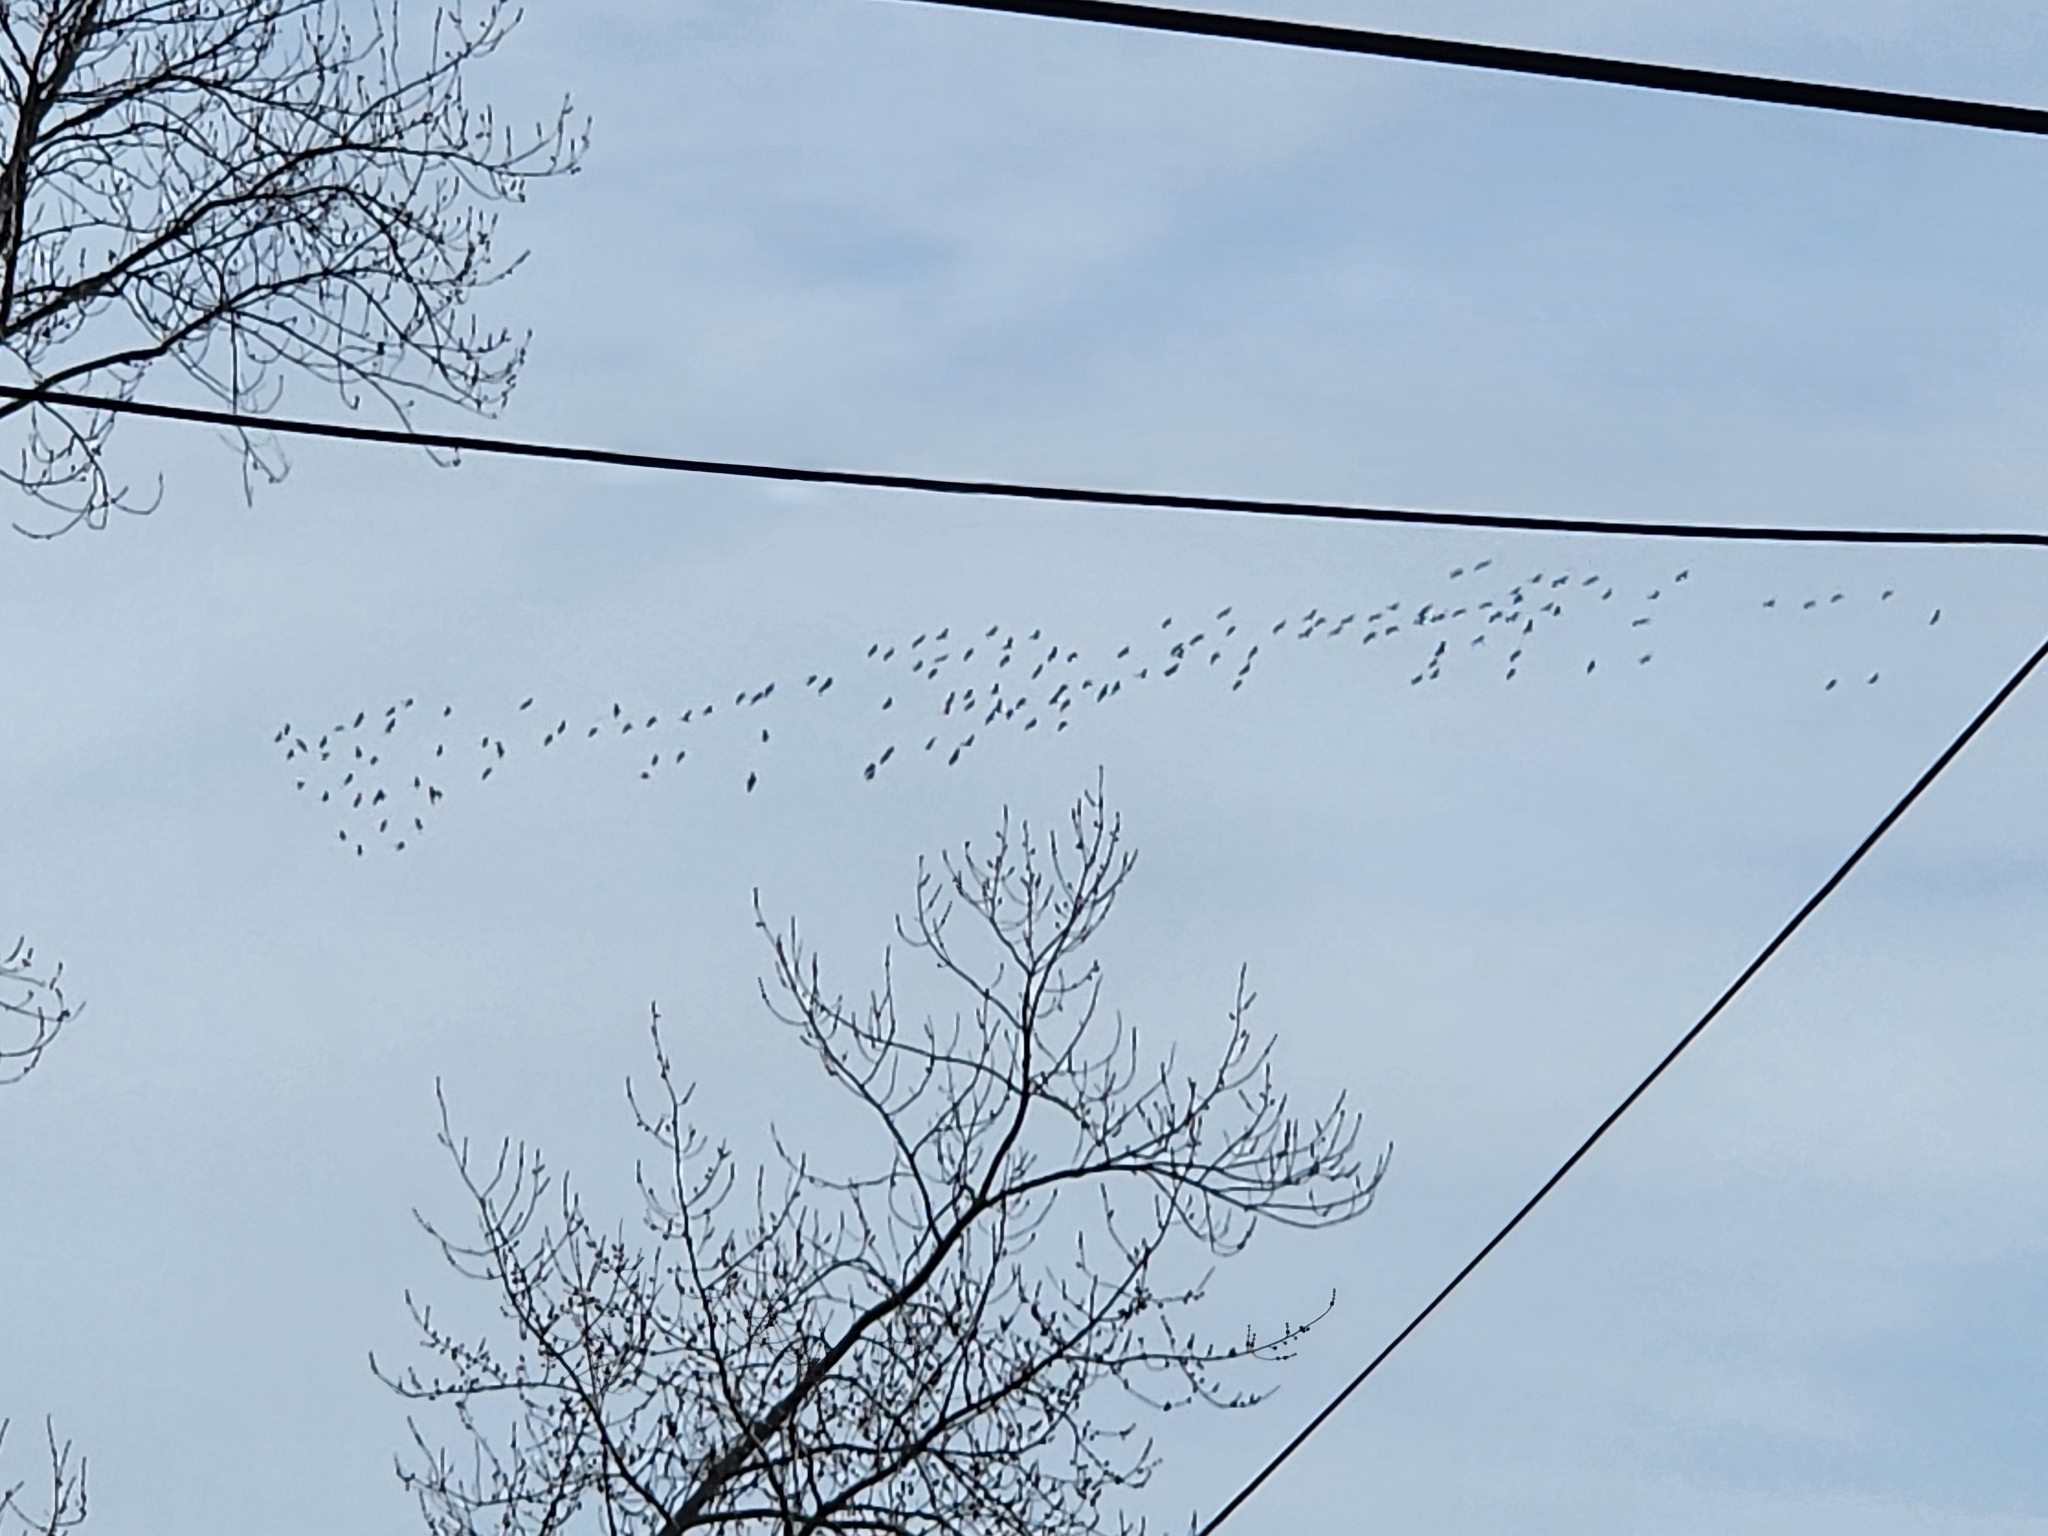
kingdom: Animalia
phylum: Chordata
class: Aves
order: Gruiformes
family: Gruidae
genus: Grus
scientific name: Grus canadensis
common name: Sandhill crane
